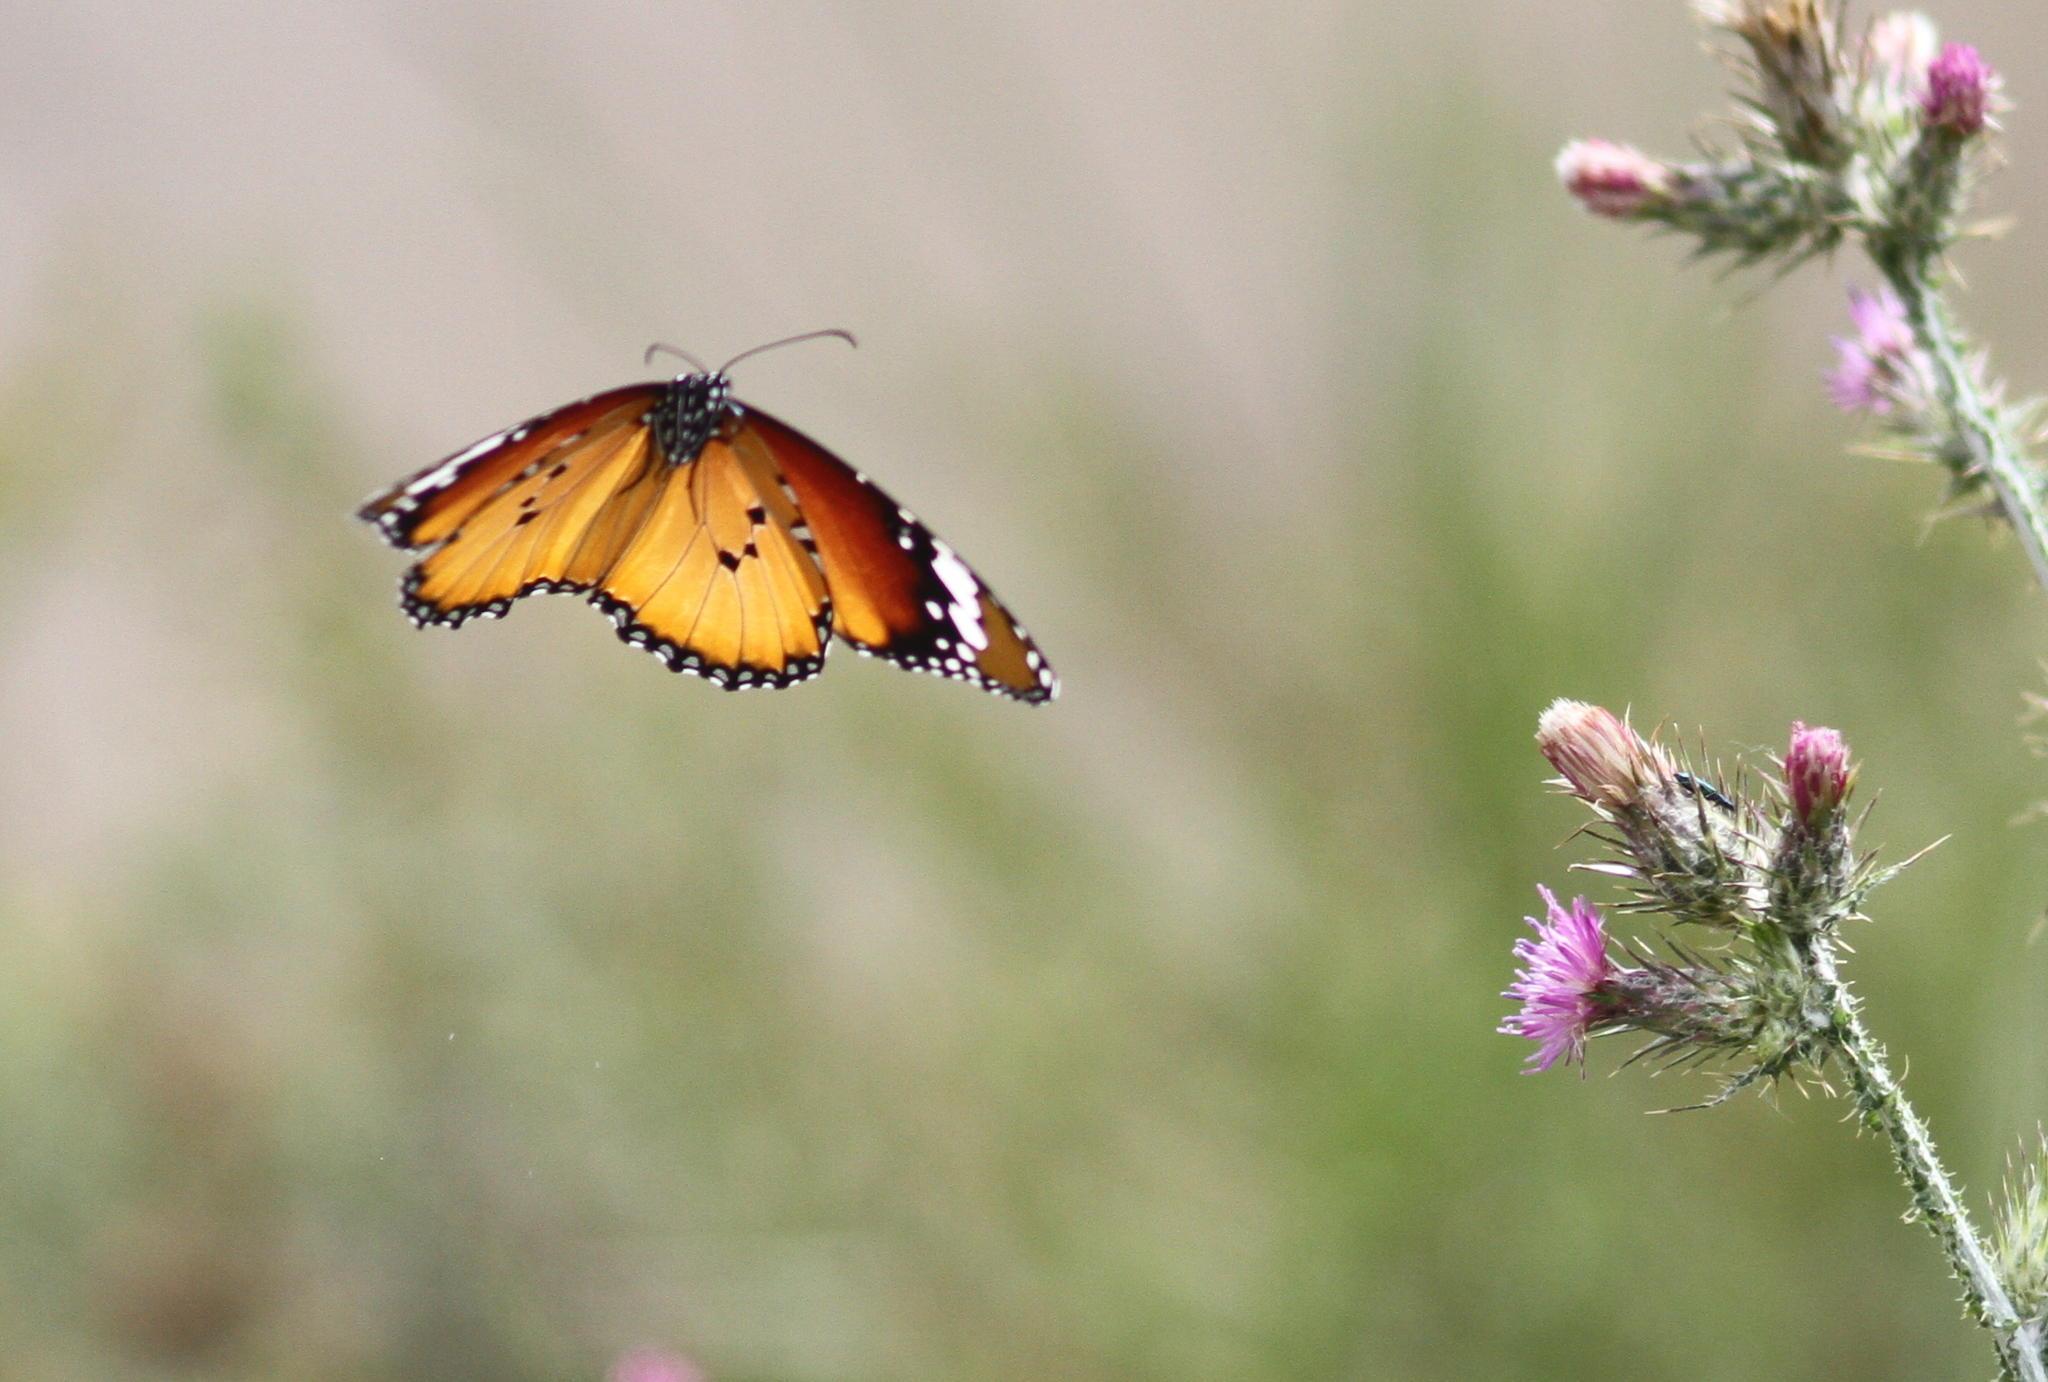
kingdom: Animalia
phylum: Arthropoda
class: Insecta
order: Lepidoptera
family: Nymphalidae
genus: Danaus
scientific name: Danaus chrysippus
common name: Plain tiger
